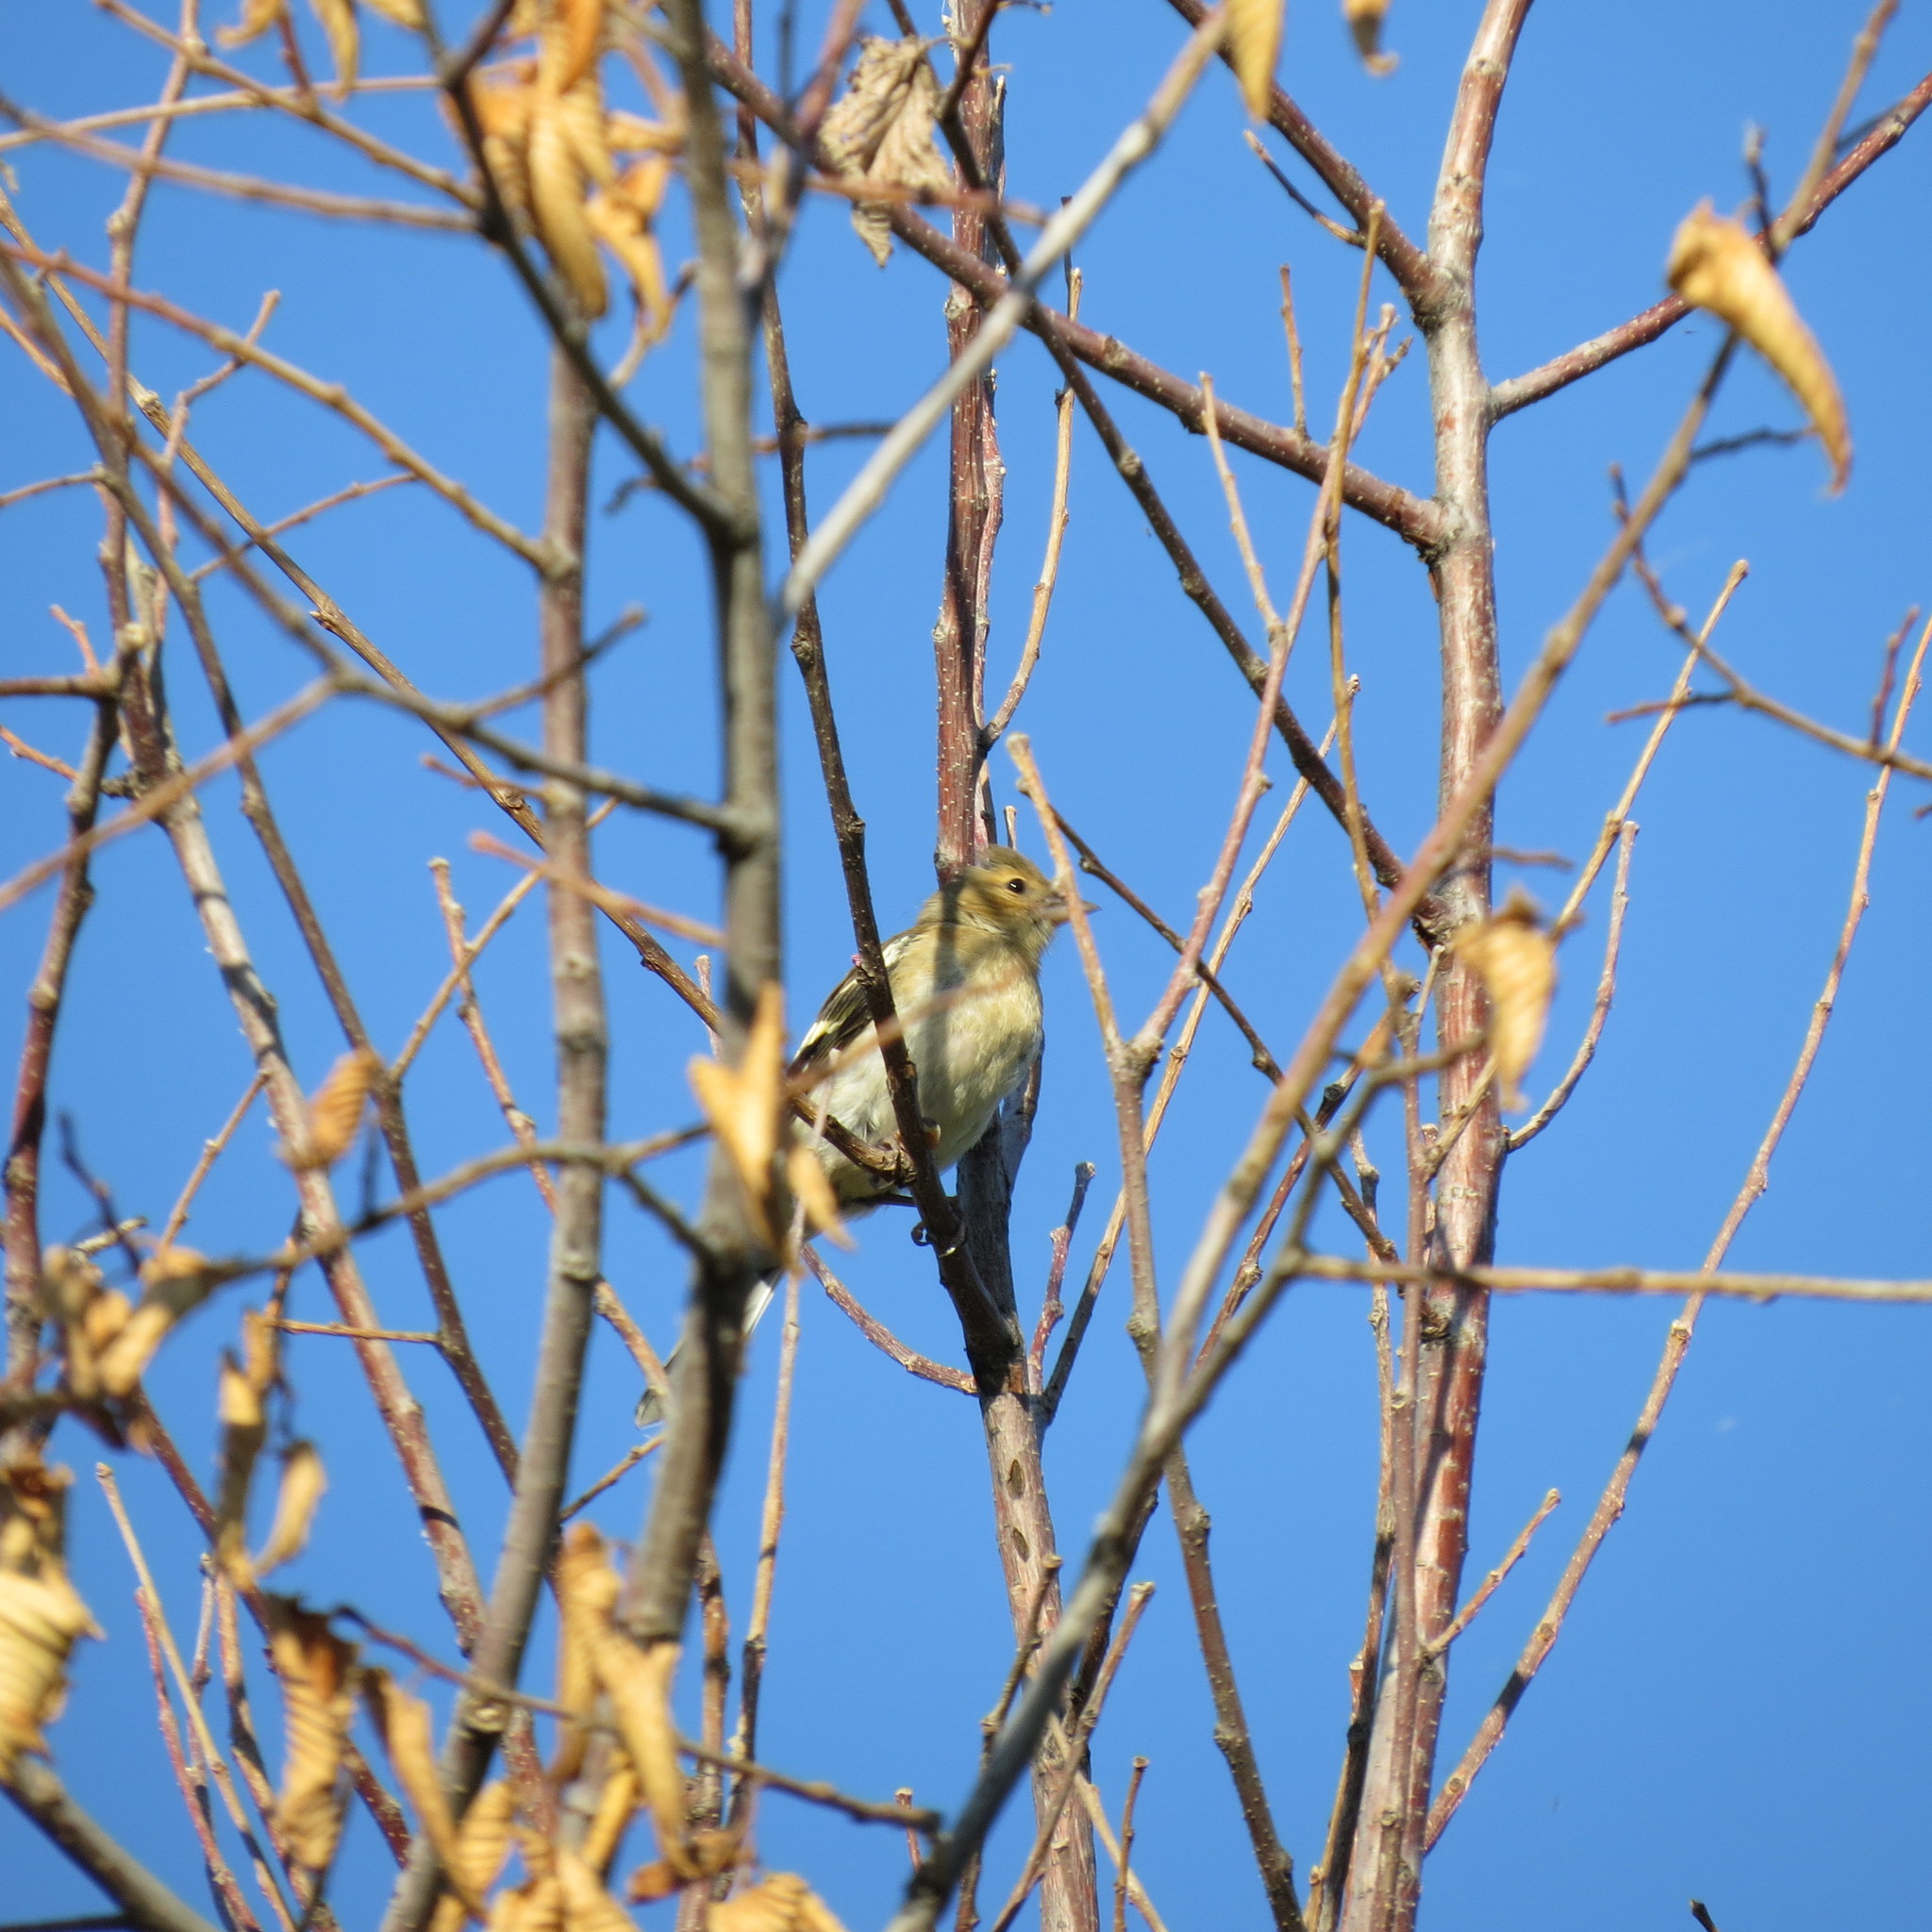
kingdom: Animalia
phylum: Chordata
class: Aves
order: Passeriformes
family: Fringillidae
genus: Fringilla
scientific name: Fringilla coelebs
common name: Common chaffinch
